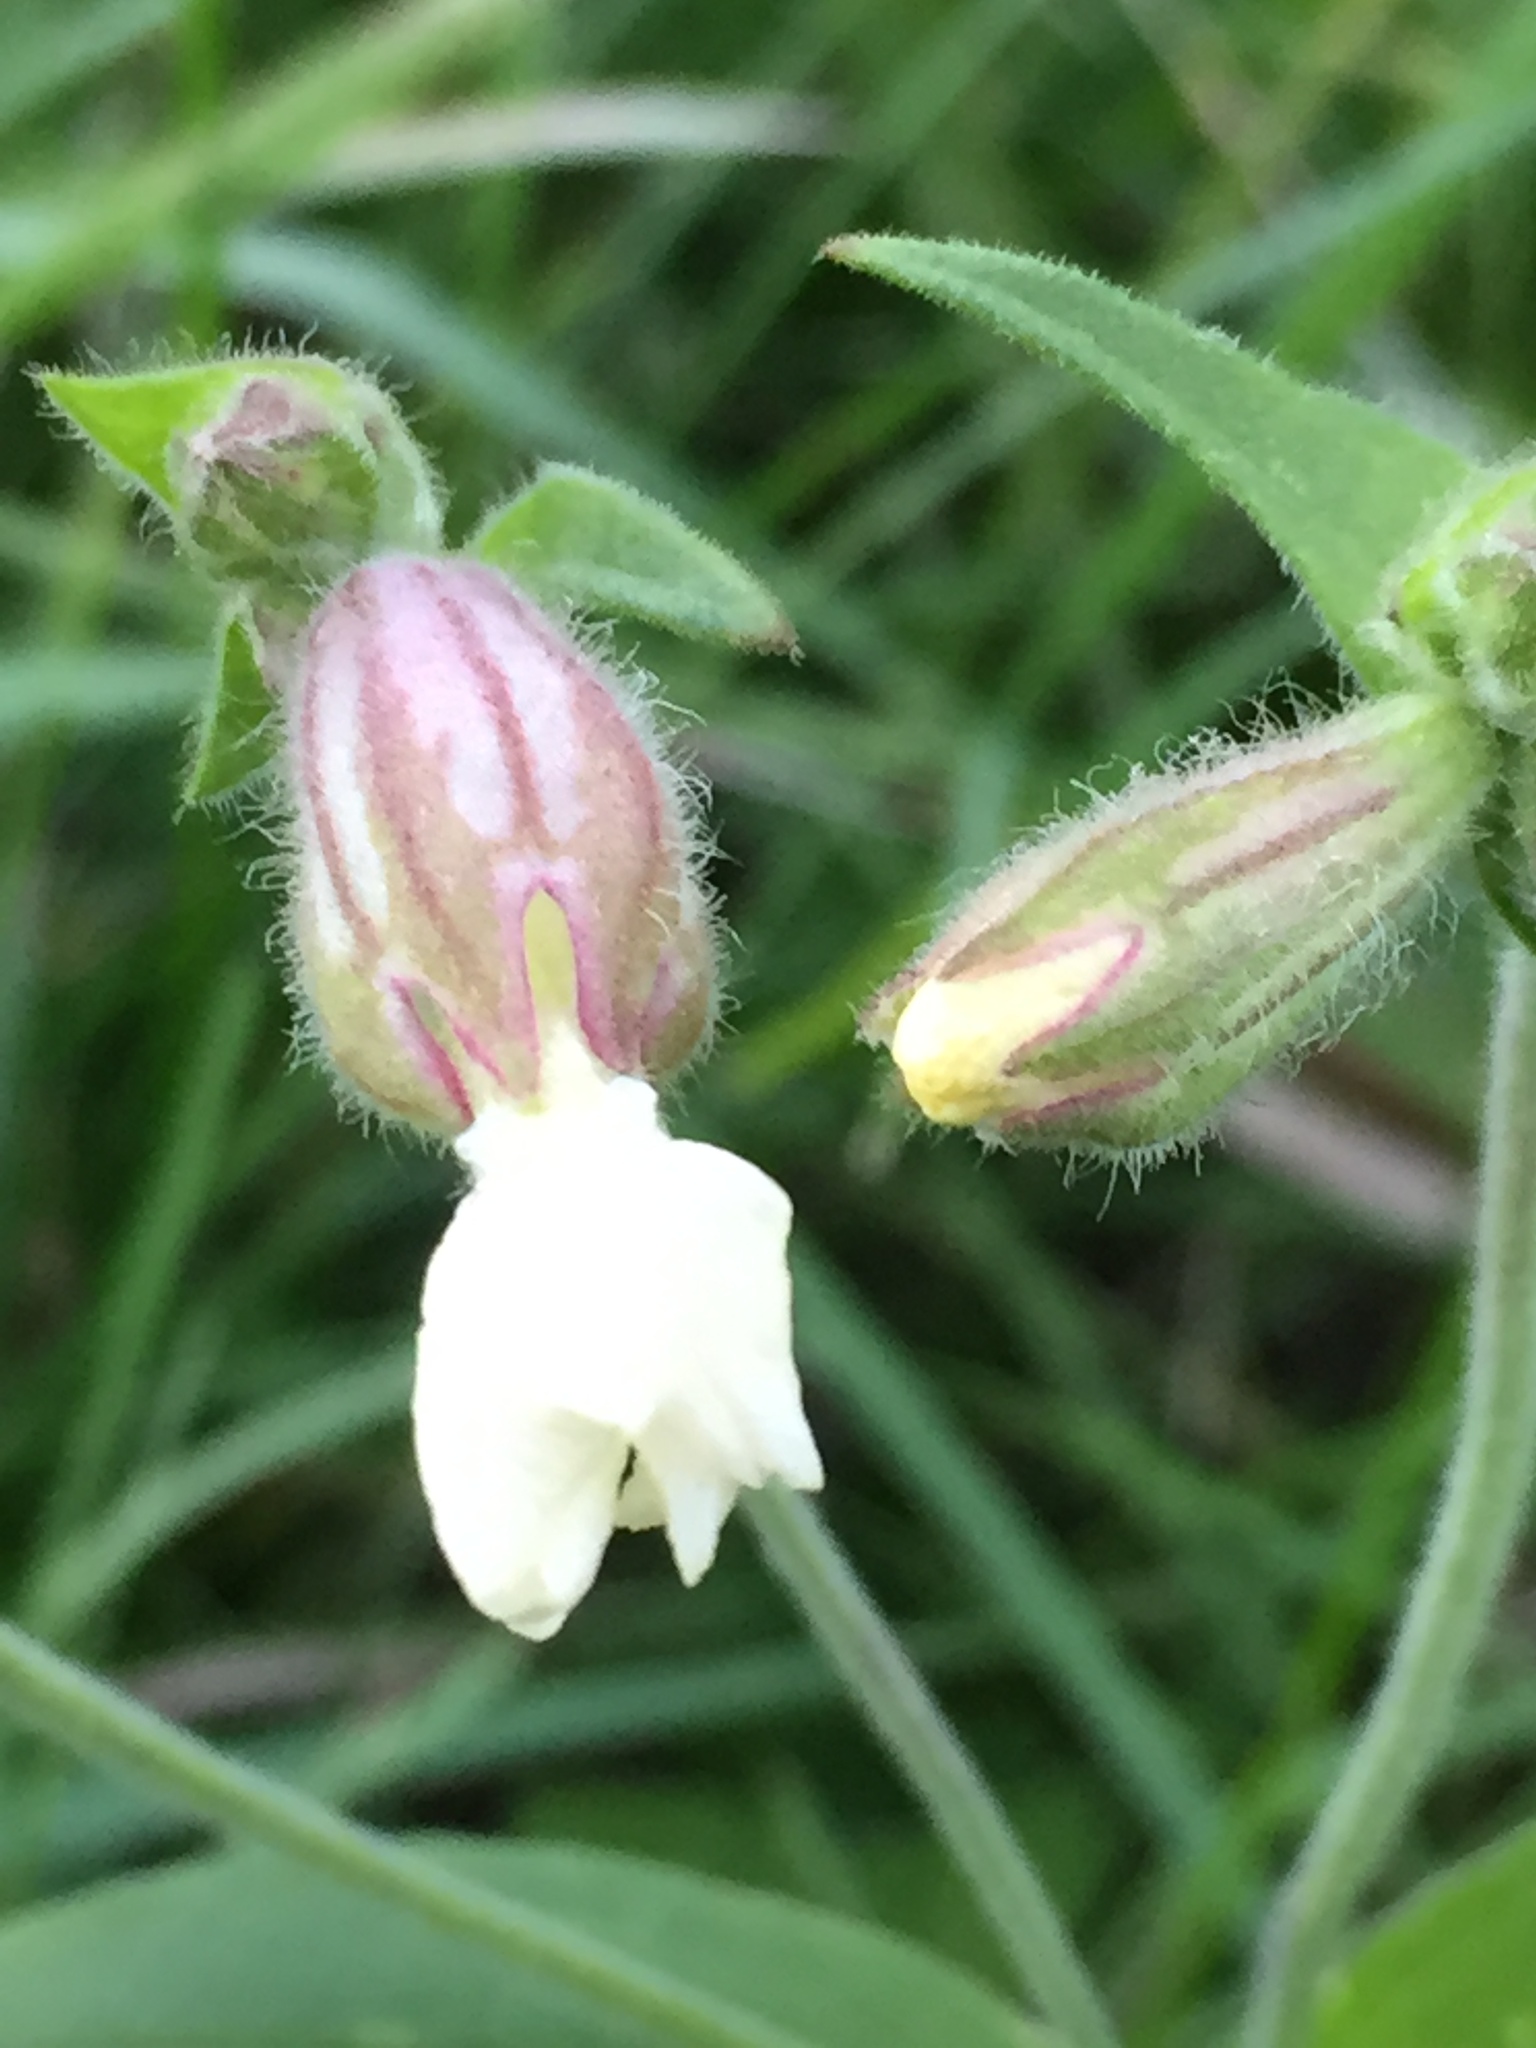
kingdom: Plantae
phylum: Tracheophyta
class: Magnoliopsida
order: Caryophyllales
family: Caryophyllaceae
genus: Silene
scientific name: Silene latifolia
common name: White campion
